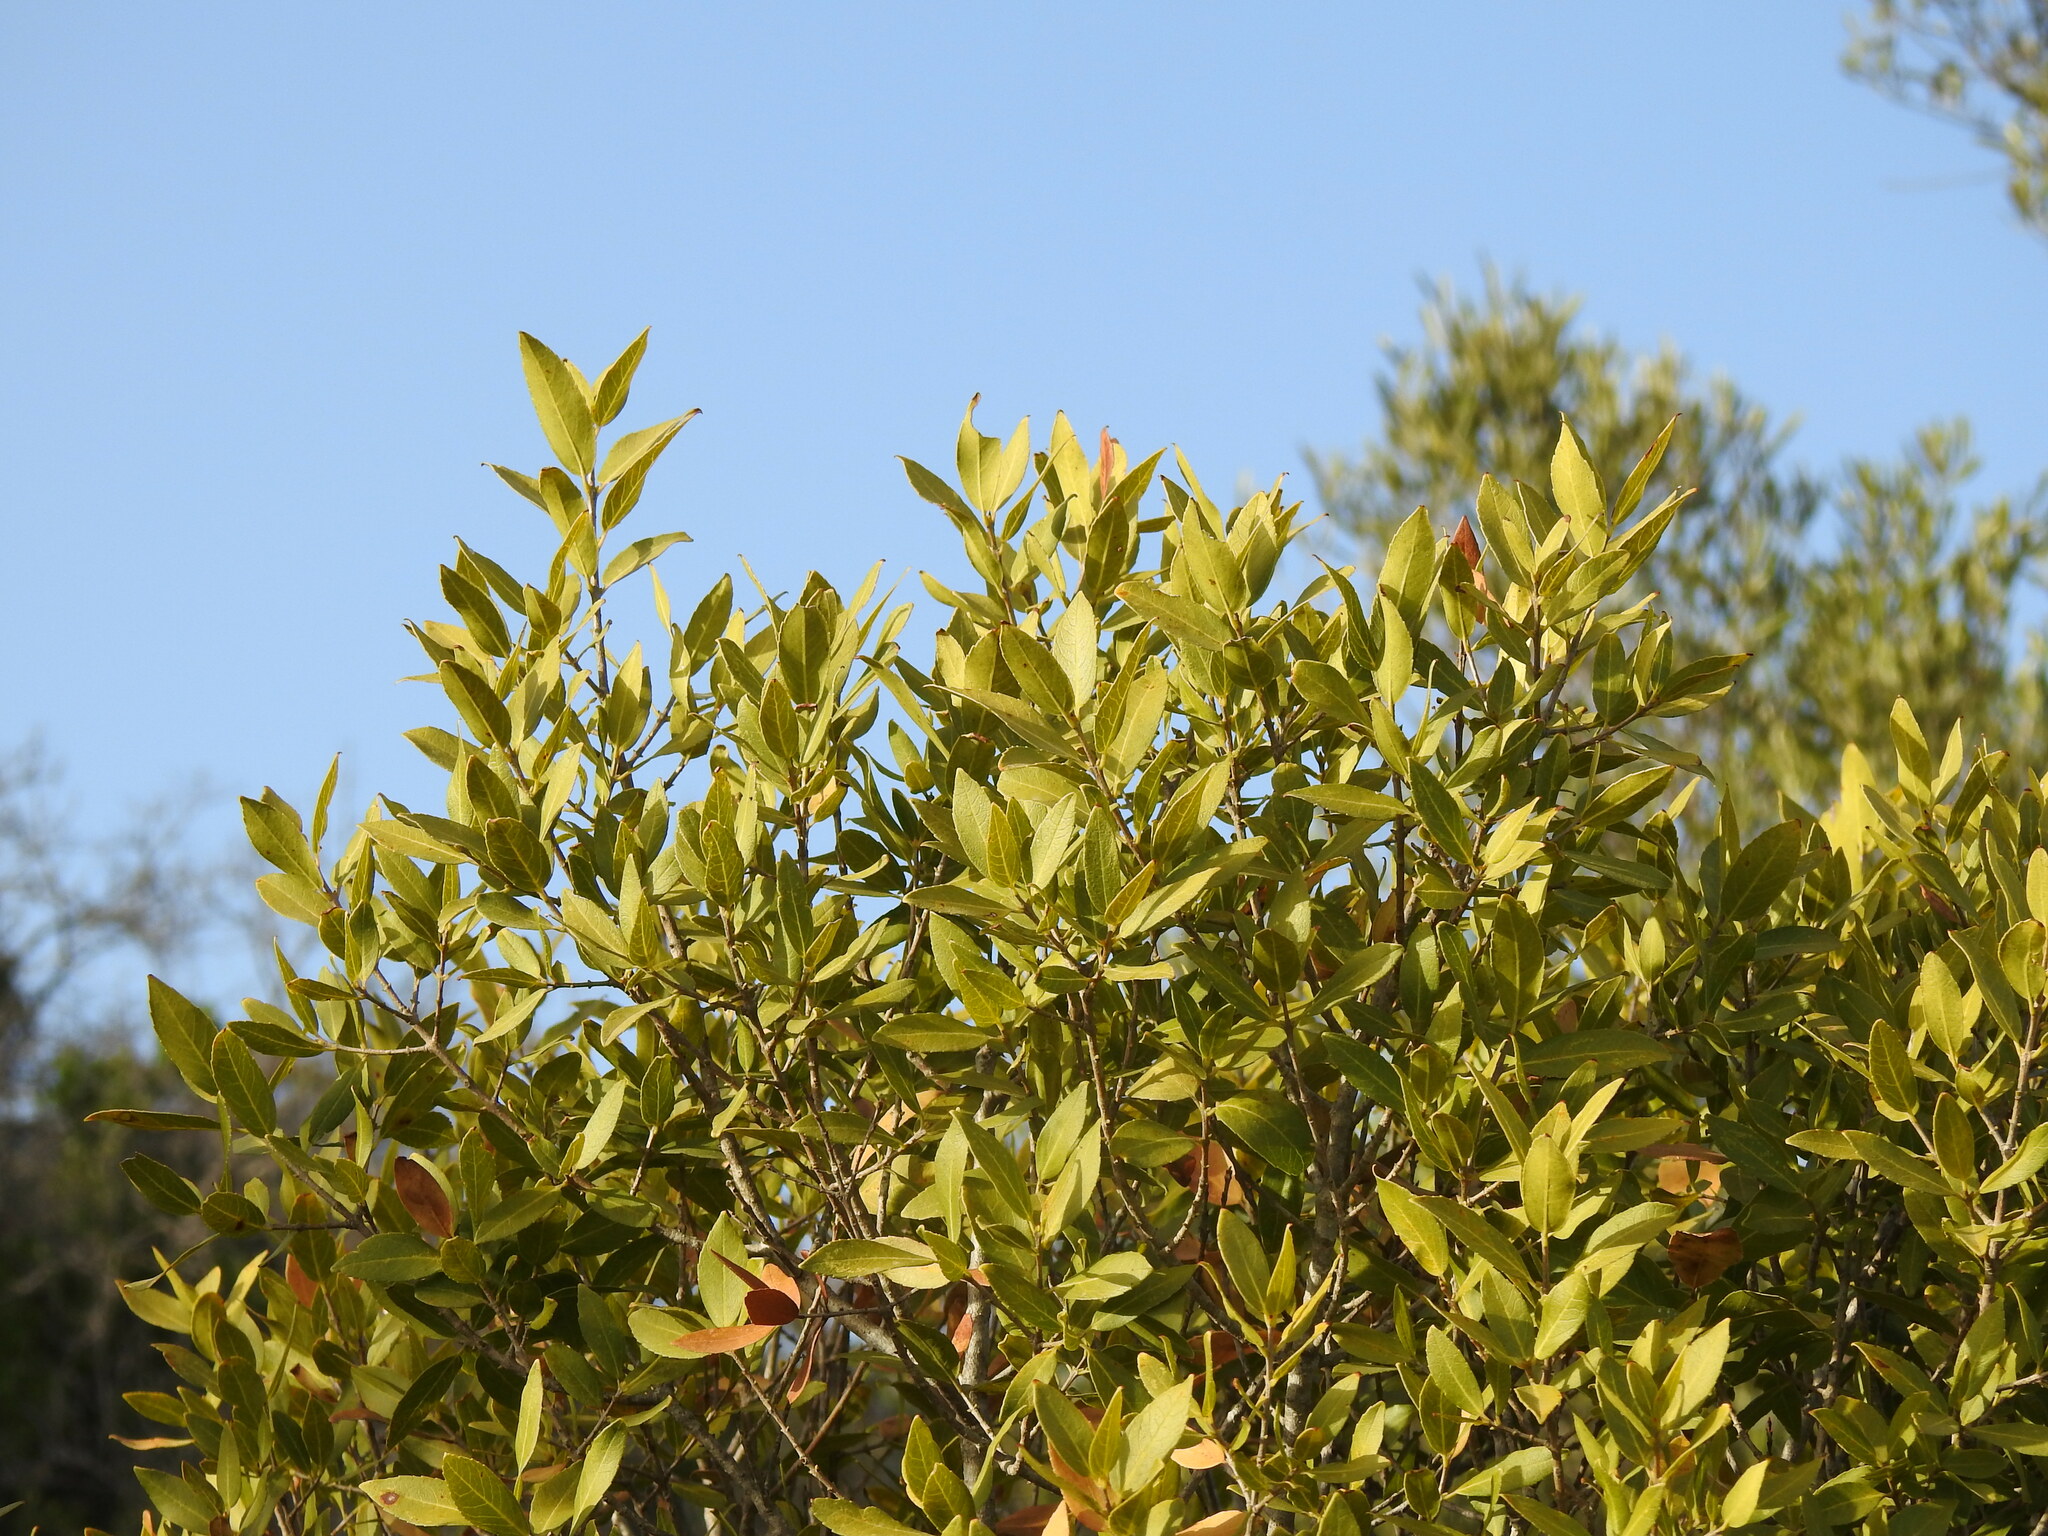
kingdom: Plantae
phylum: Tracheophyta
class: Magnoliopsida
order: Lamiales
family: Oleaceae
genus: Phillyrea
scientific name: Phillyrea latifolia
